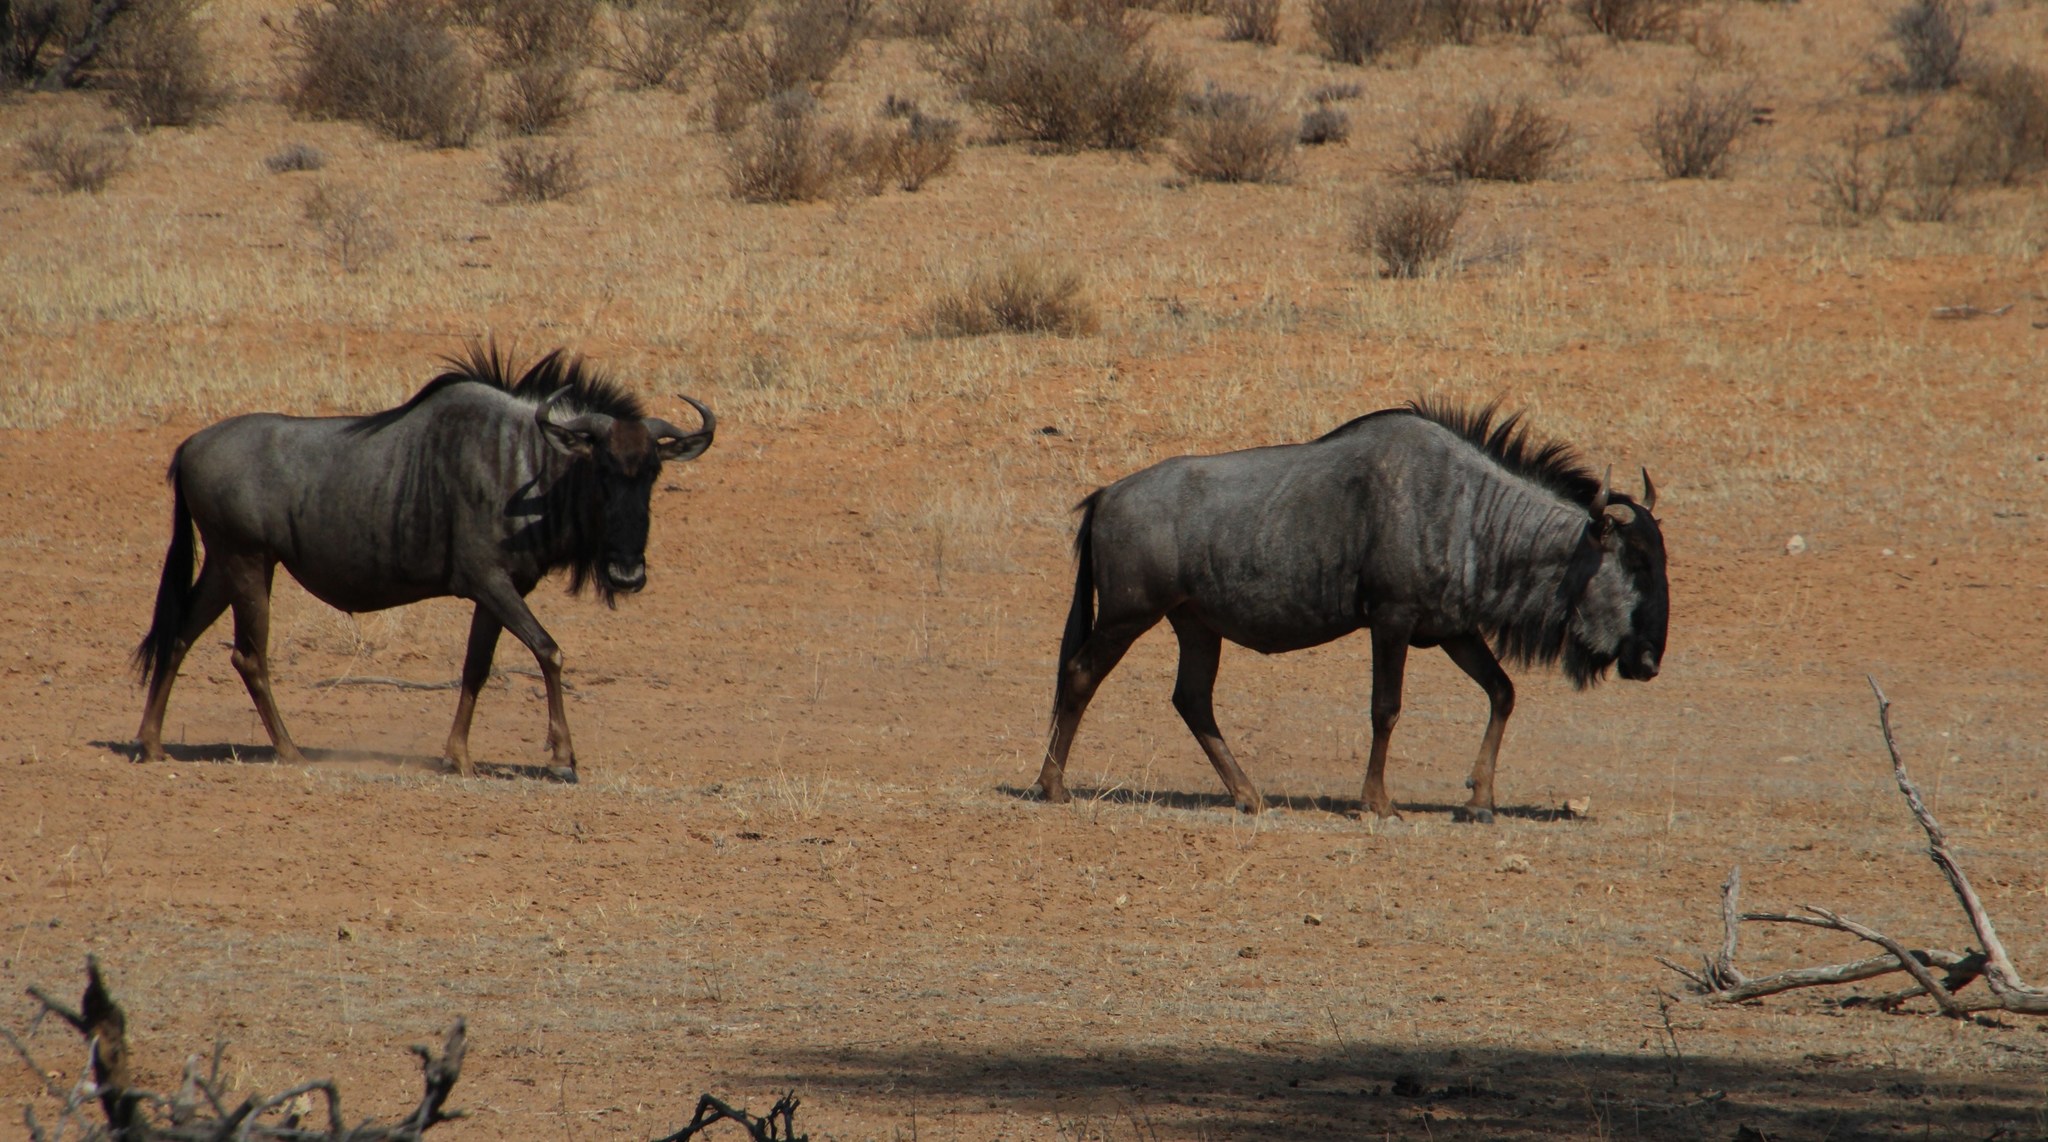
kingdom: Animalia
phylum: Chordata
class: Mammalia
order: Artiodactyla
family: Bovidae
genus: Connochaetes
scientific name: Connochaetes taurinus
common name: Blue wildebeest
